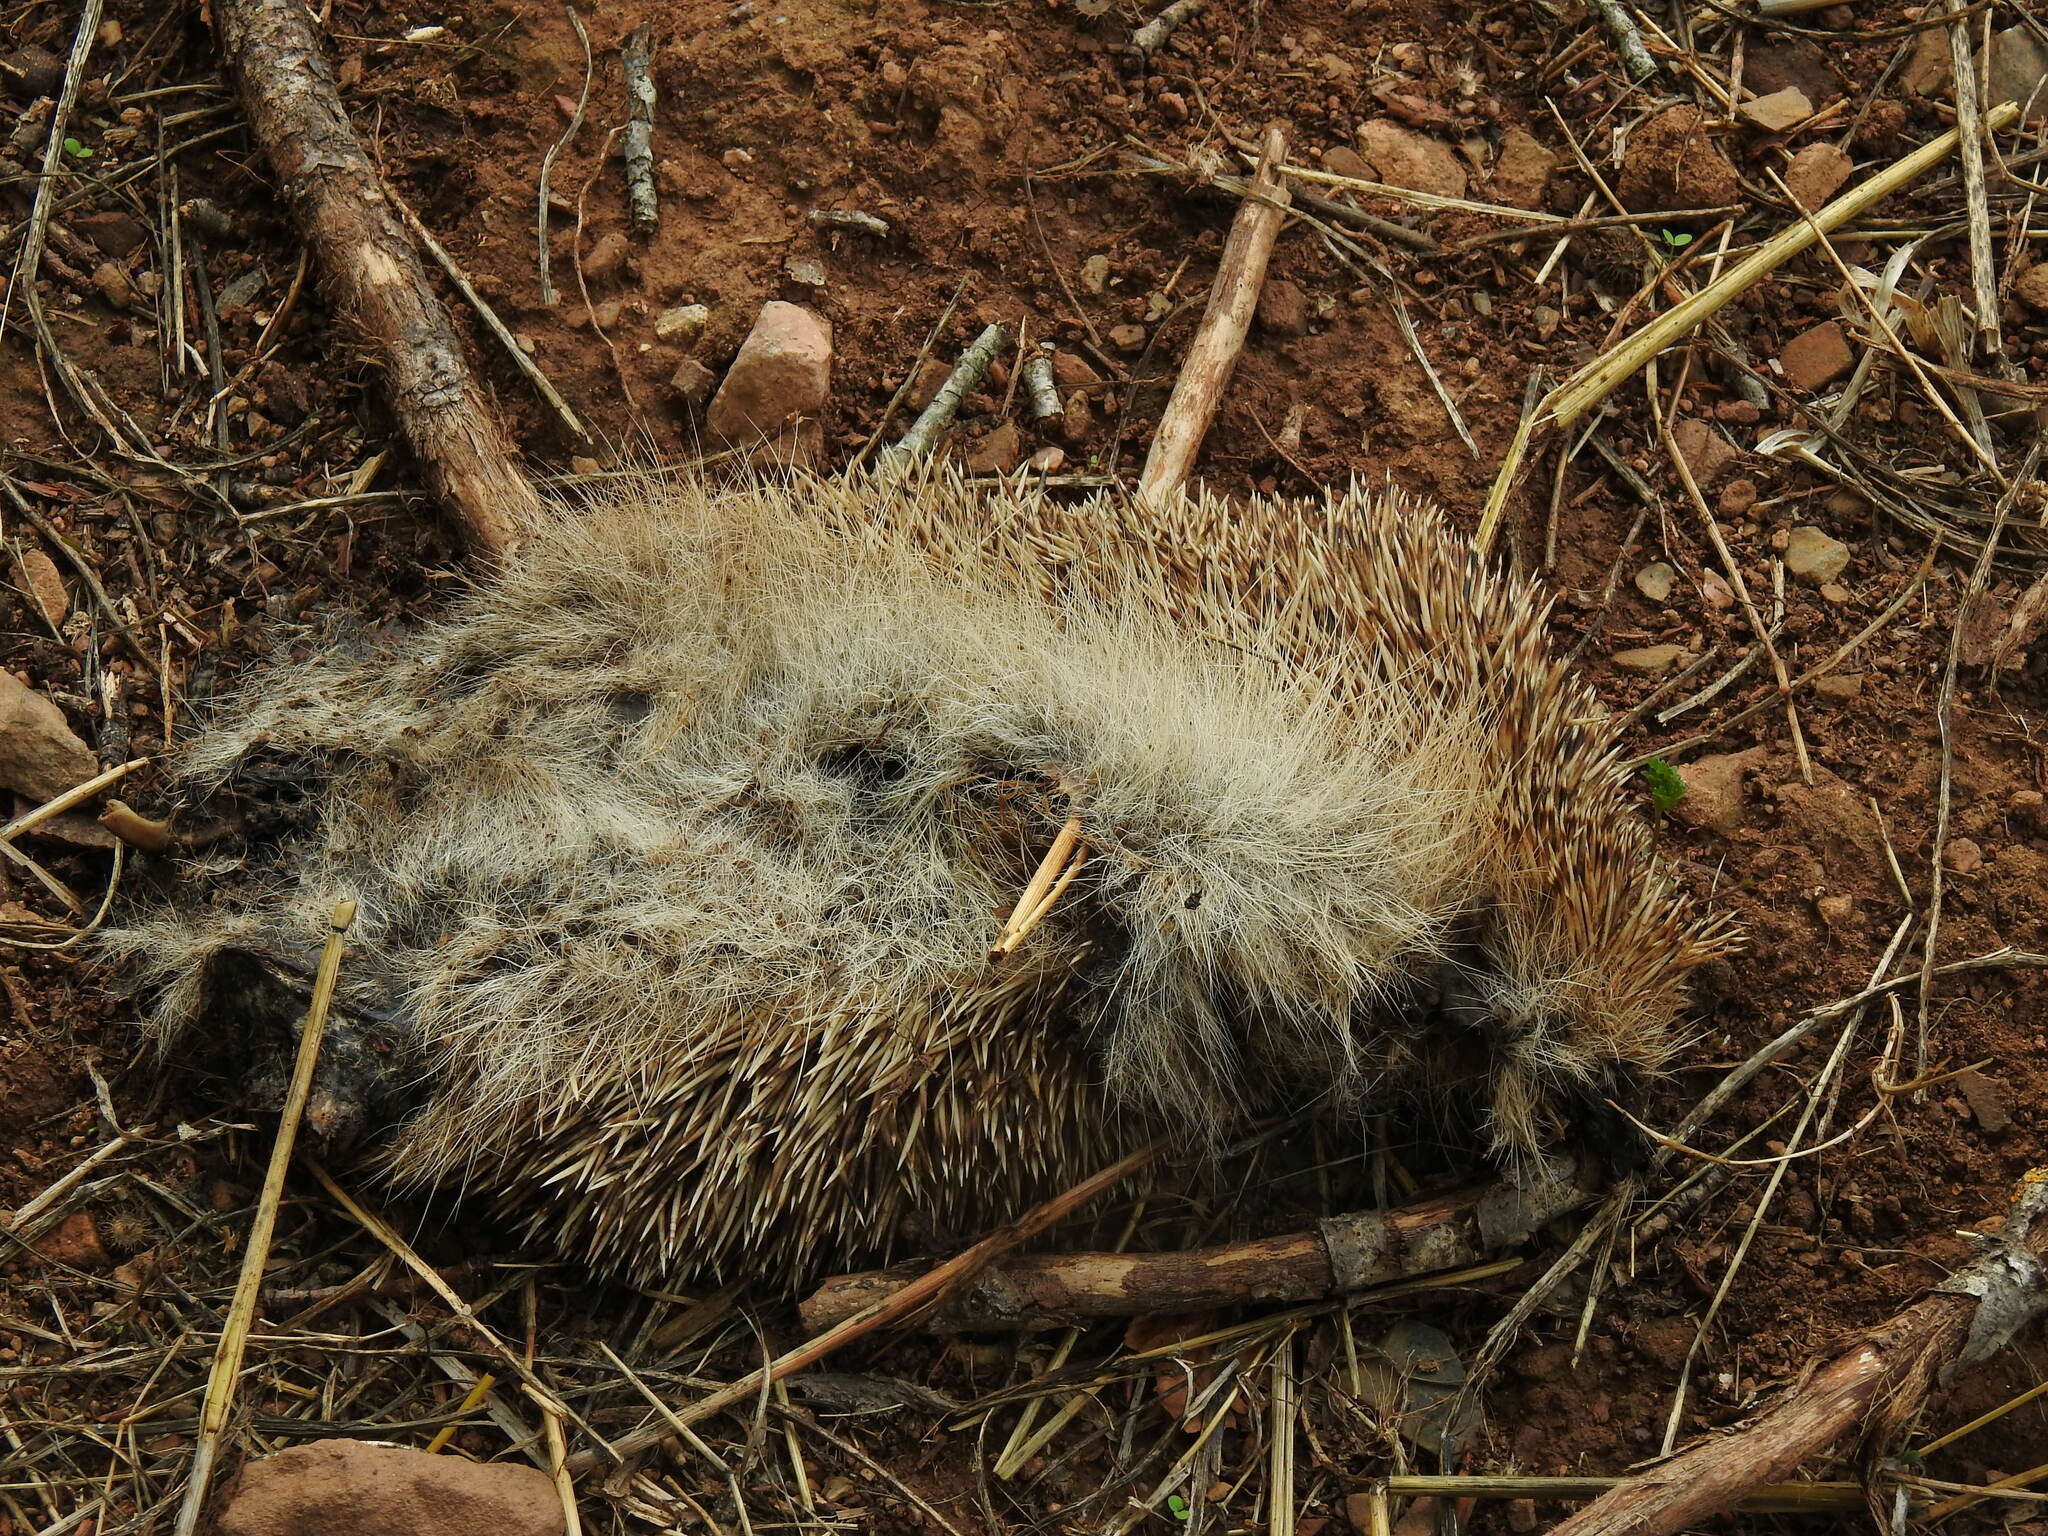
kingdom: Animalia
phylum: Chordata
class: Mammalia
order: Erinaceomorpha
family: Erinaceidae
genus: Erinaceus
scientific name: Erinaceus europaeus
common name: West european hedgehog
